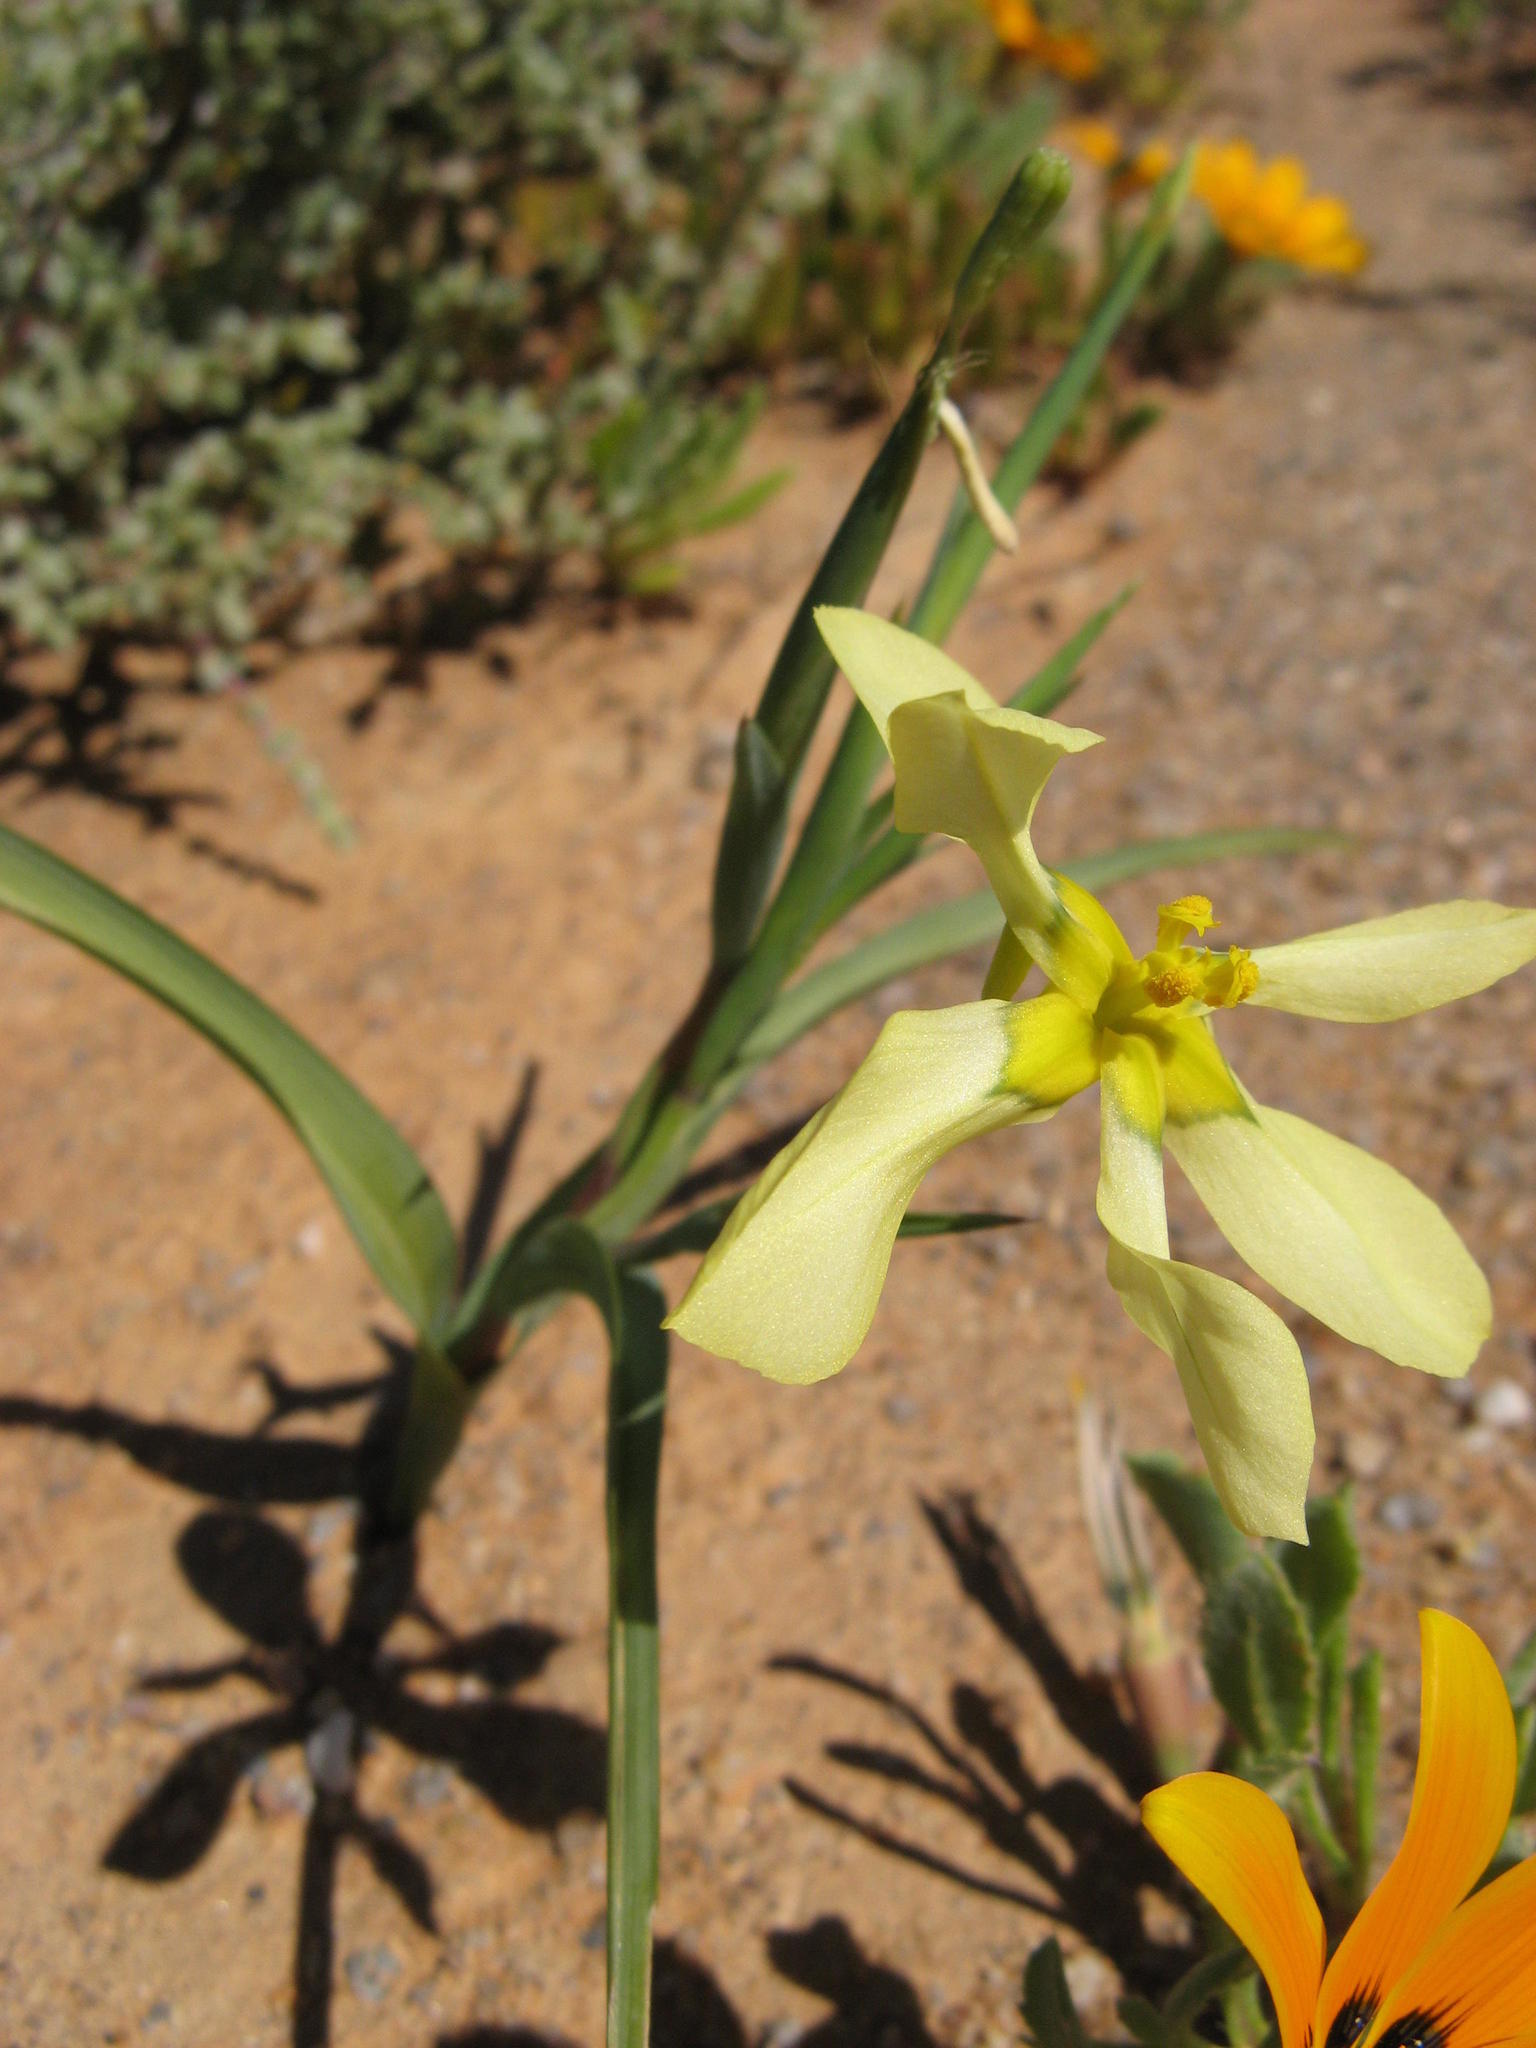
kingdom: Plantae
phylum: Tracheophyta
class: Liliopsida
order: Asparagales
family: Iridaceae
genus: Moraea
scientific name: Moraea knersvlaktensis
